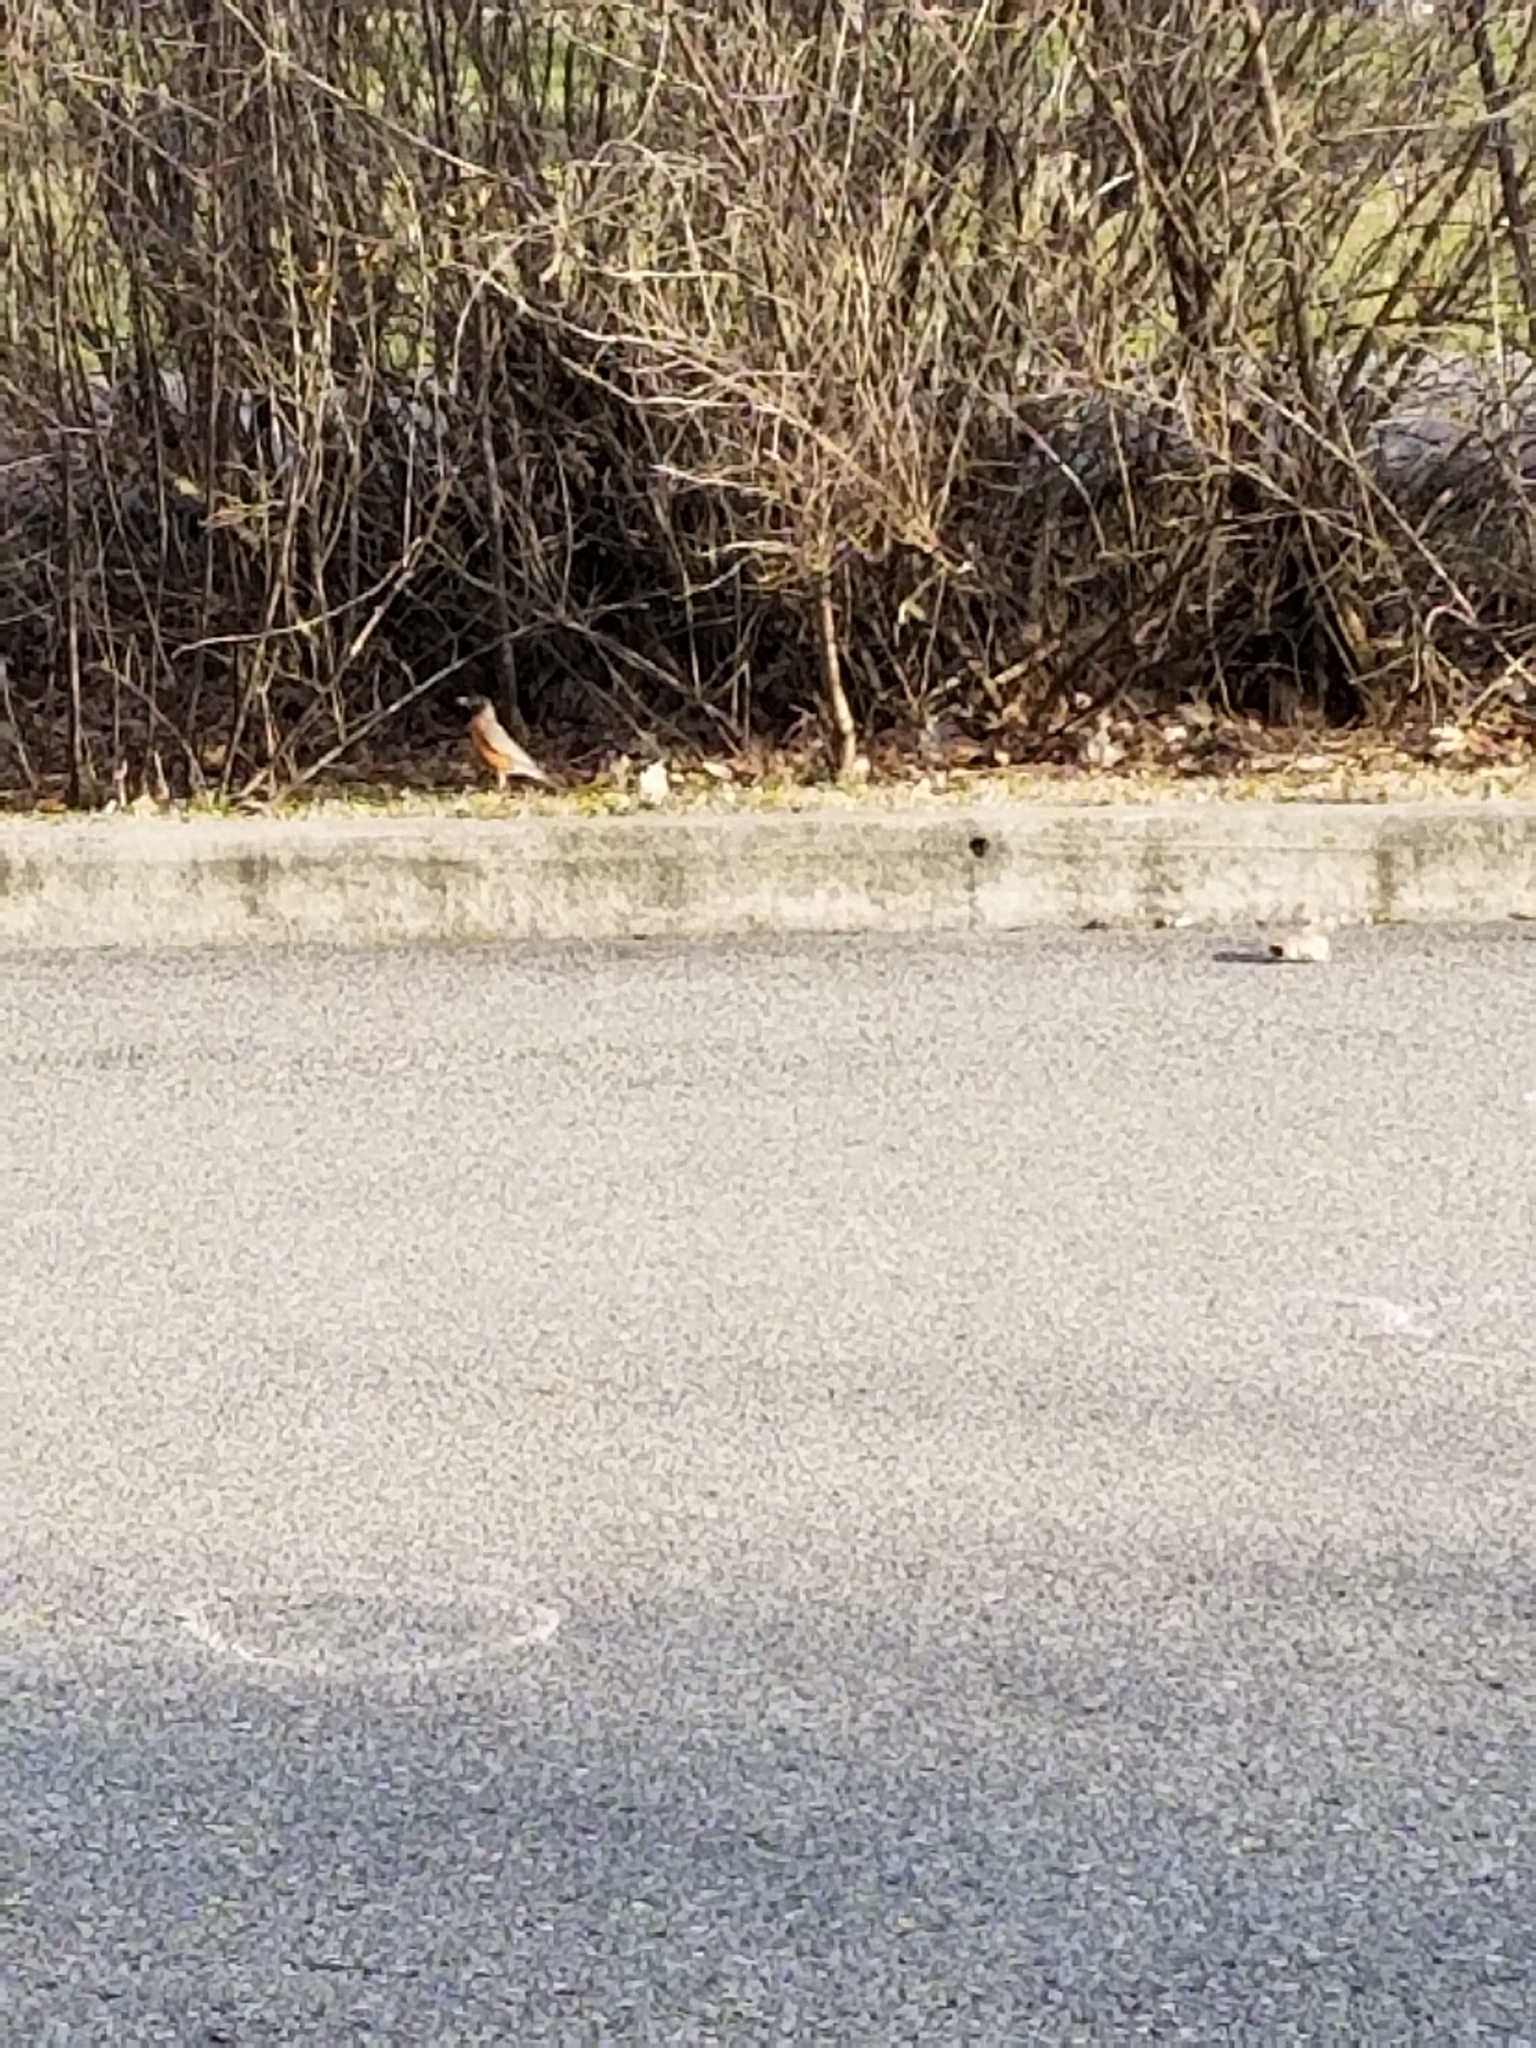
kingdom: Animalia
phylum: Chordata
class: Aves
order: Passeriformes
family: Turdidae
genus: Turdus
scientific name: Turdus migratorius
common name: American robin
